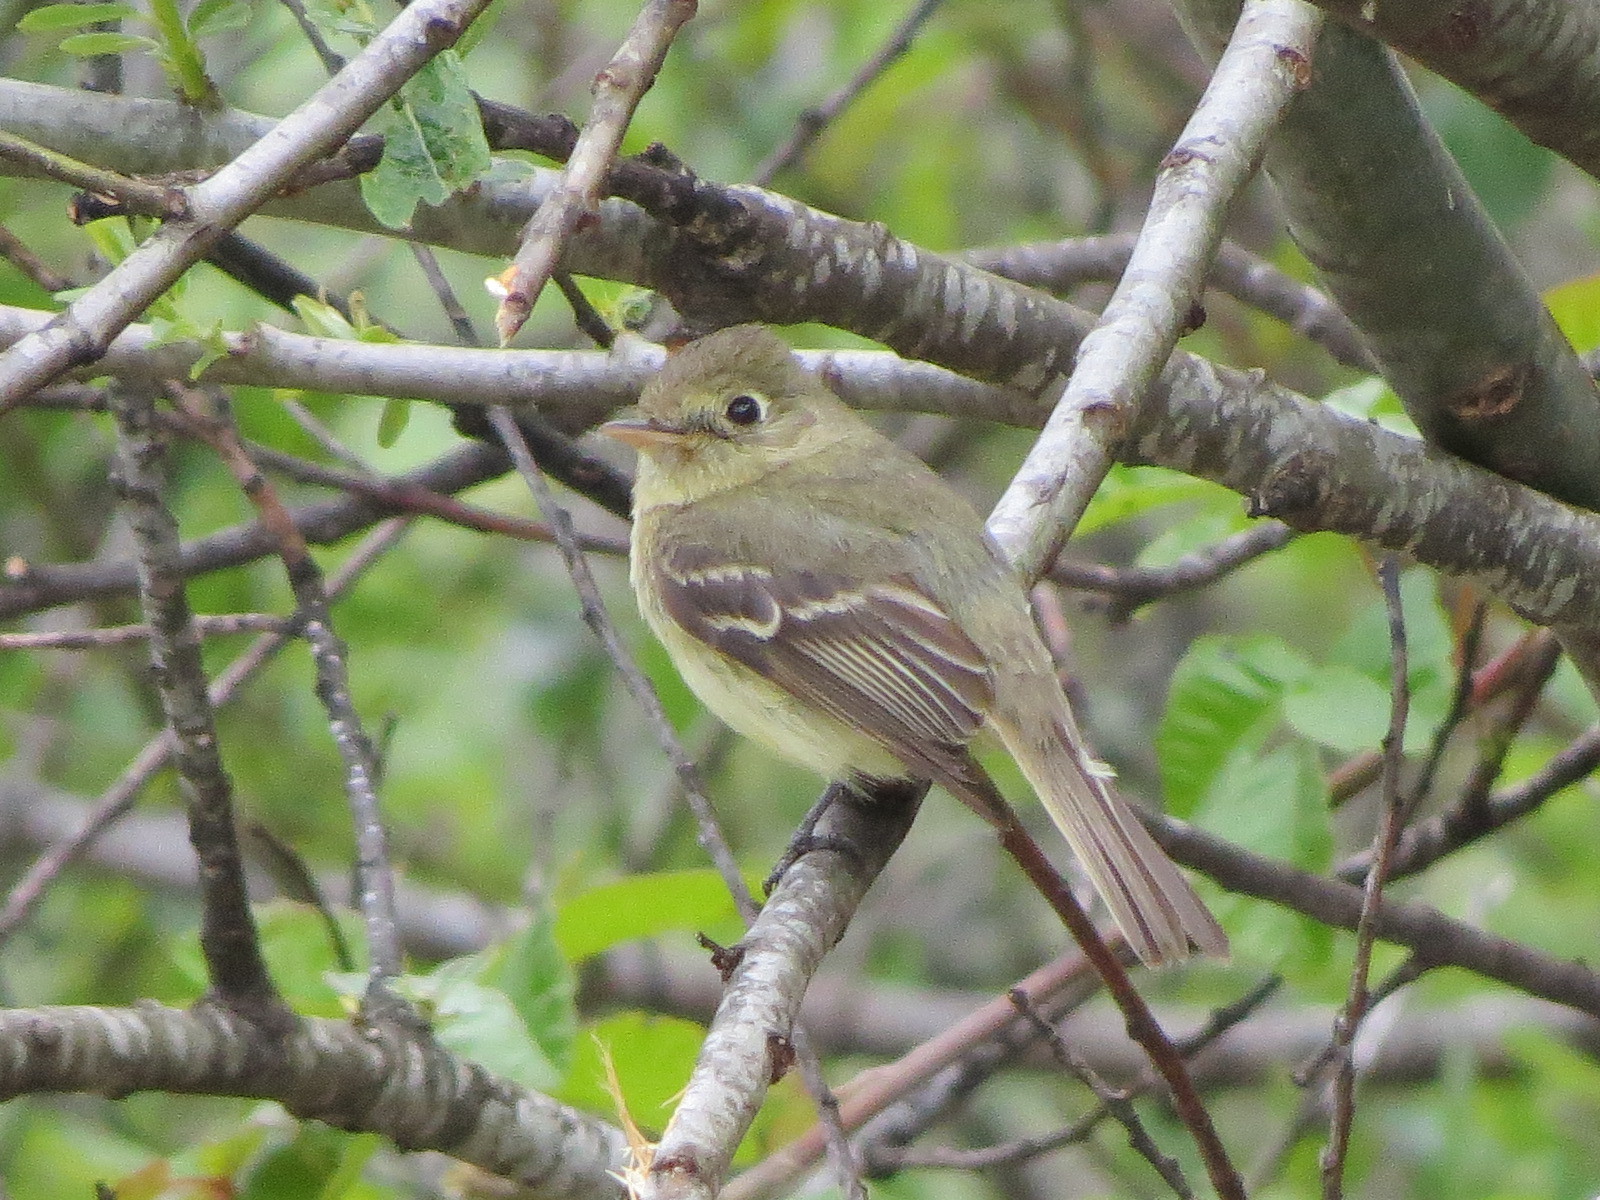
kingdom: Animalia
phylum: Chordata
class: Aves
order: Passeriformes
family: Tyrannidae
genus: Empidonax
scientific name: Empidonax difficilis
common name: Pacific-slope flycatcher
